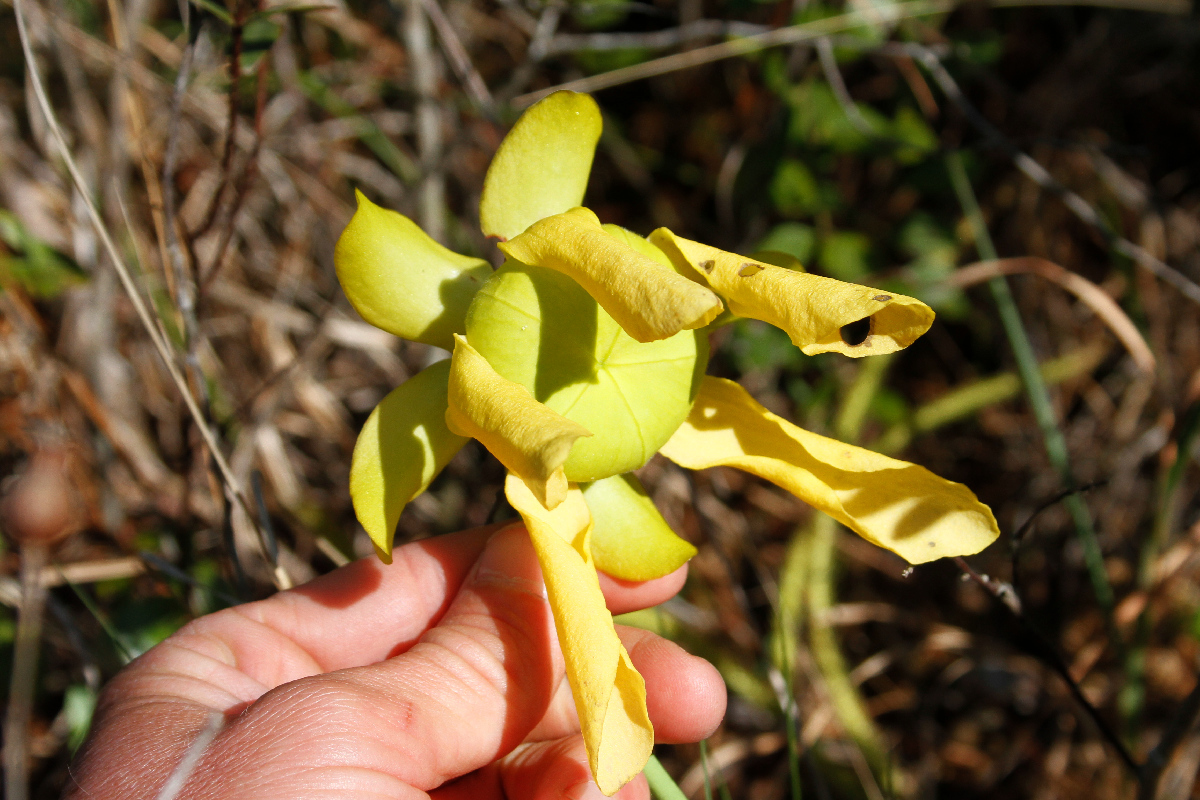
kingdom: Plantae
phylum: Tracheophyta
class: Magnoliopsida
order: Ericales
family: Sarraceniaceae
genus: Sarracenia
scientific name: Sarracenia flava
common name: Trumpets
